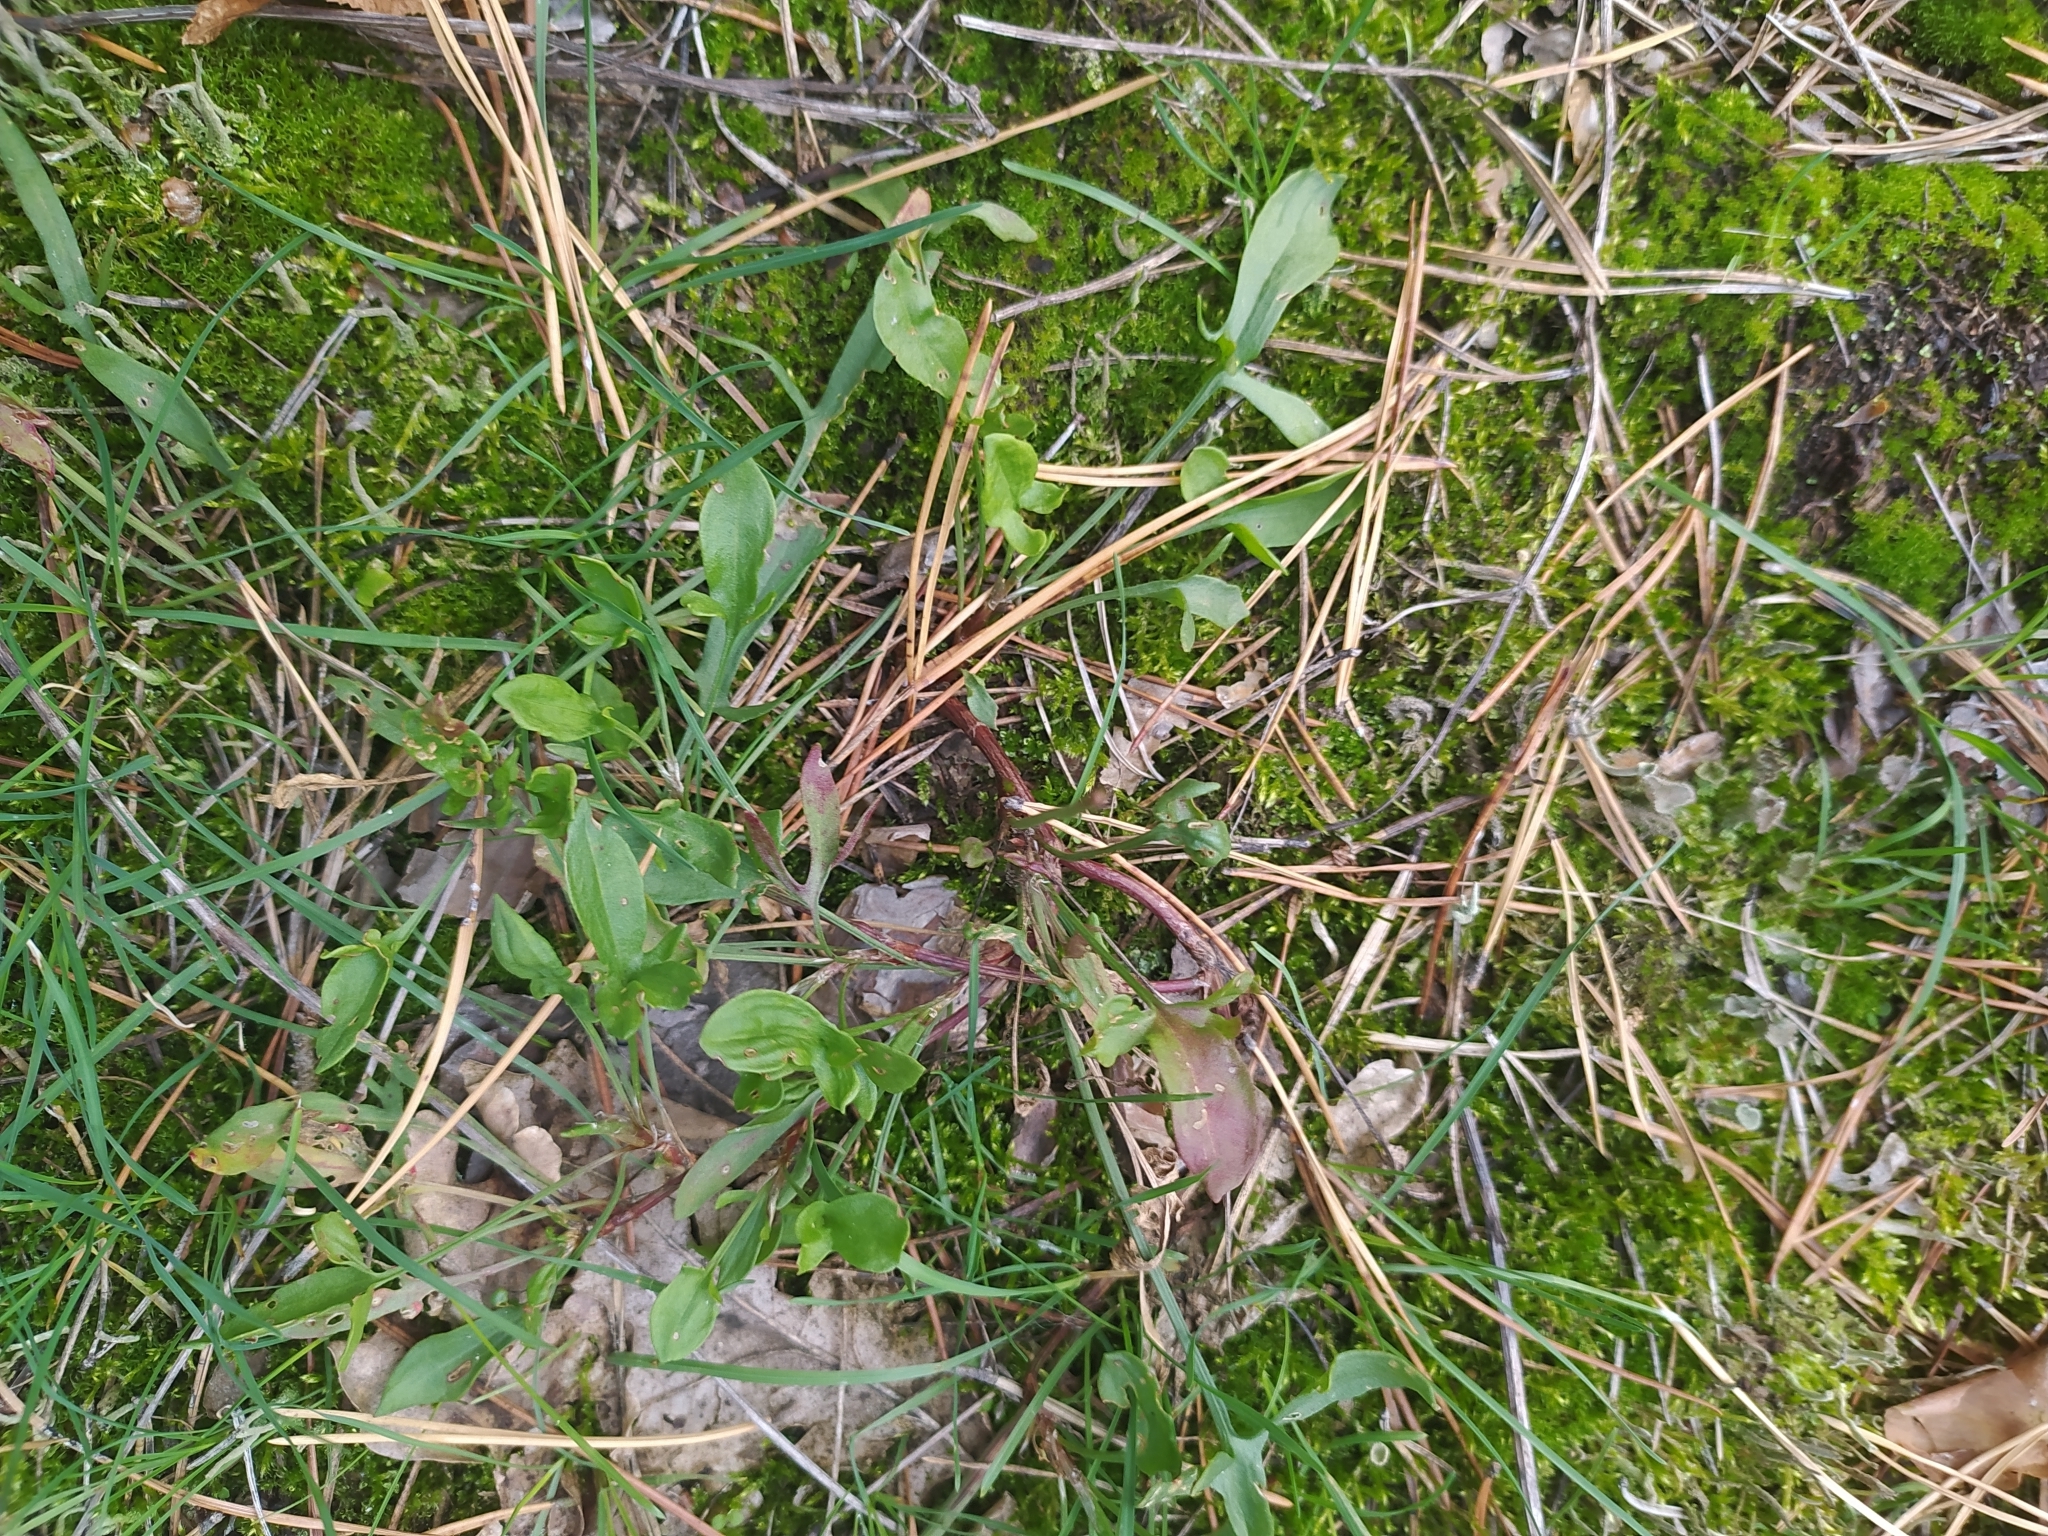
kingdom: Plantae
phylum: Tracheophyta
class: Magnoliopsida
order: Caryophyllales
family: Polygonaceae
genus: Rumex
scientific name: Rumex acetosella
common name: Common sheep sorrel
